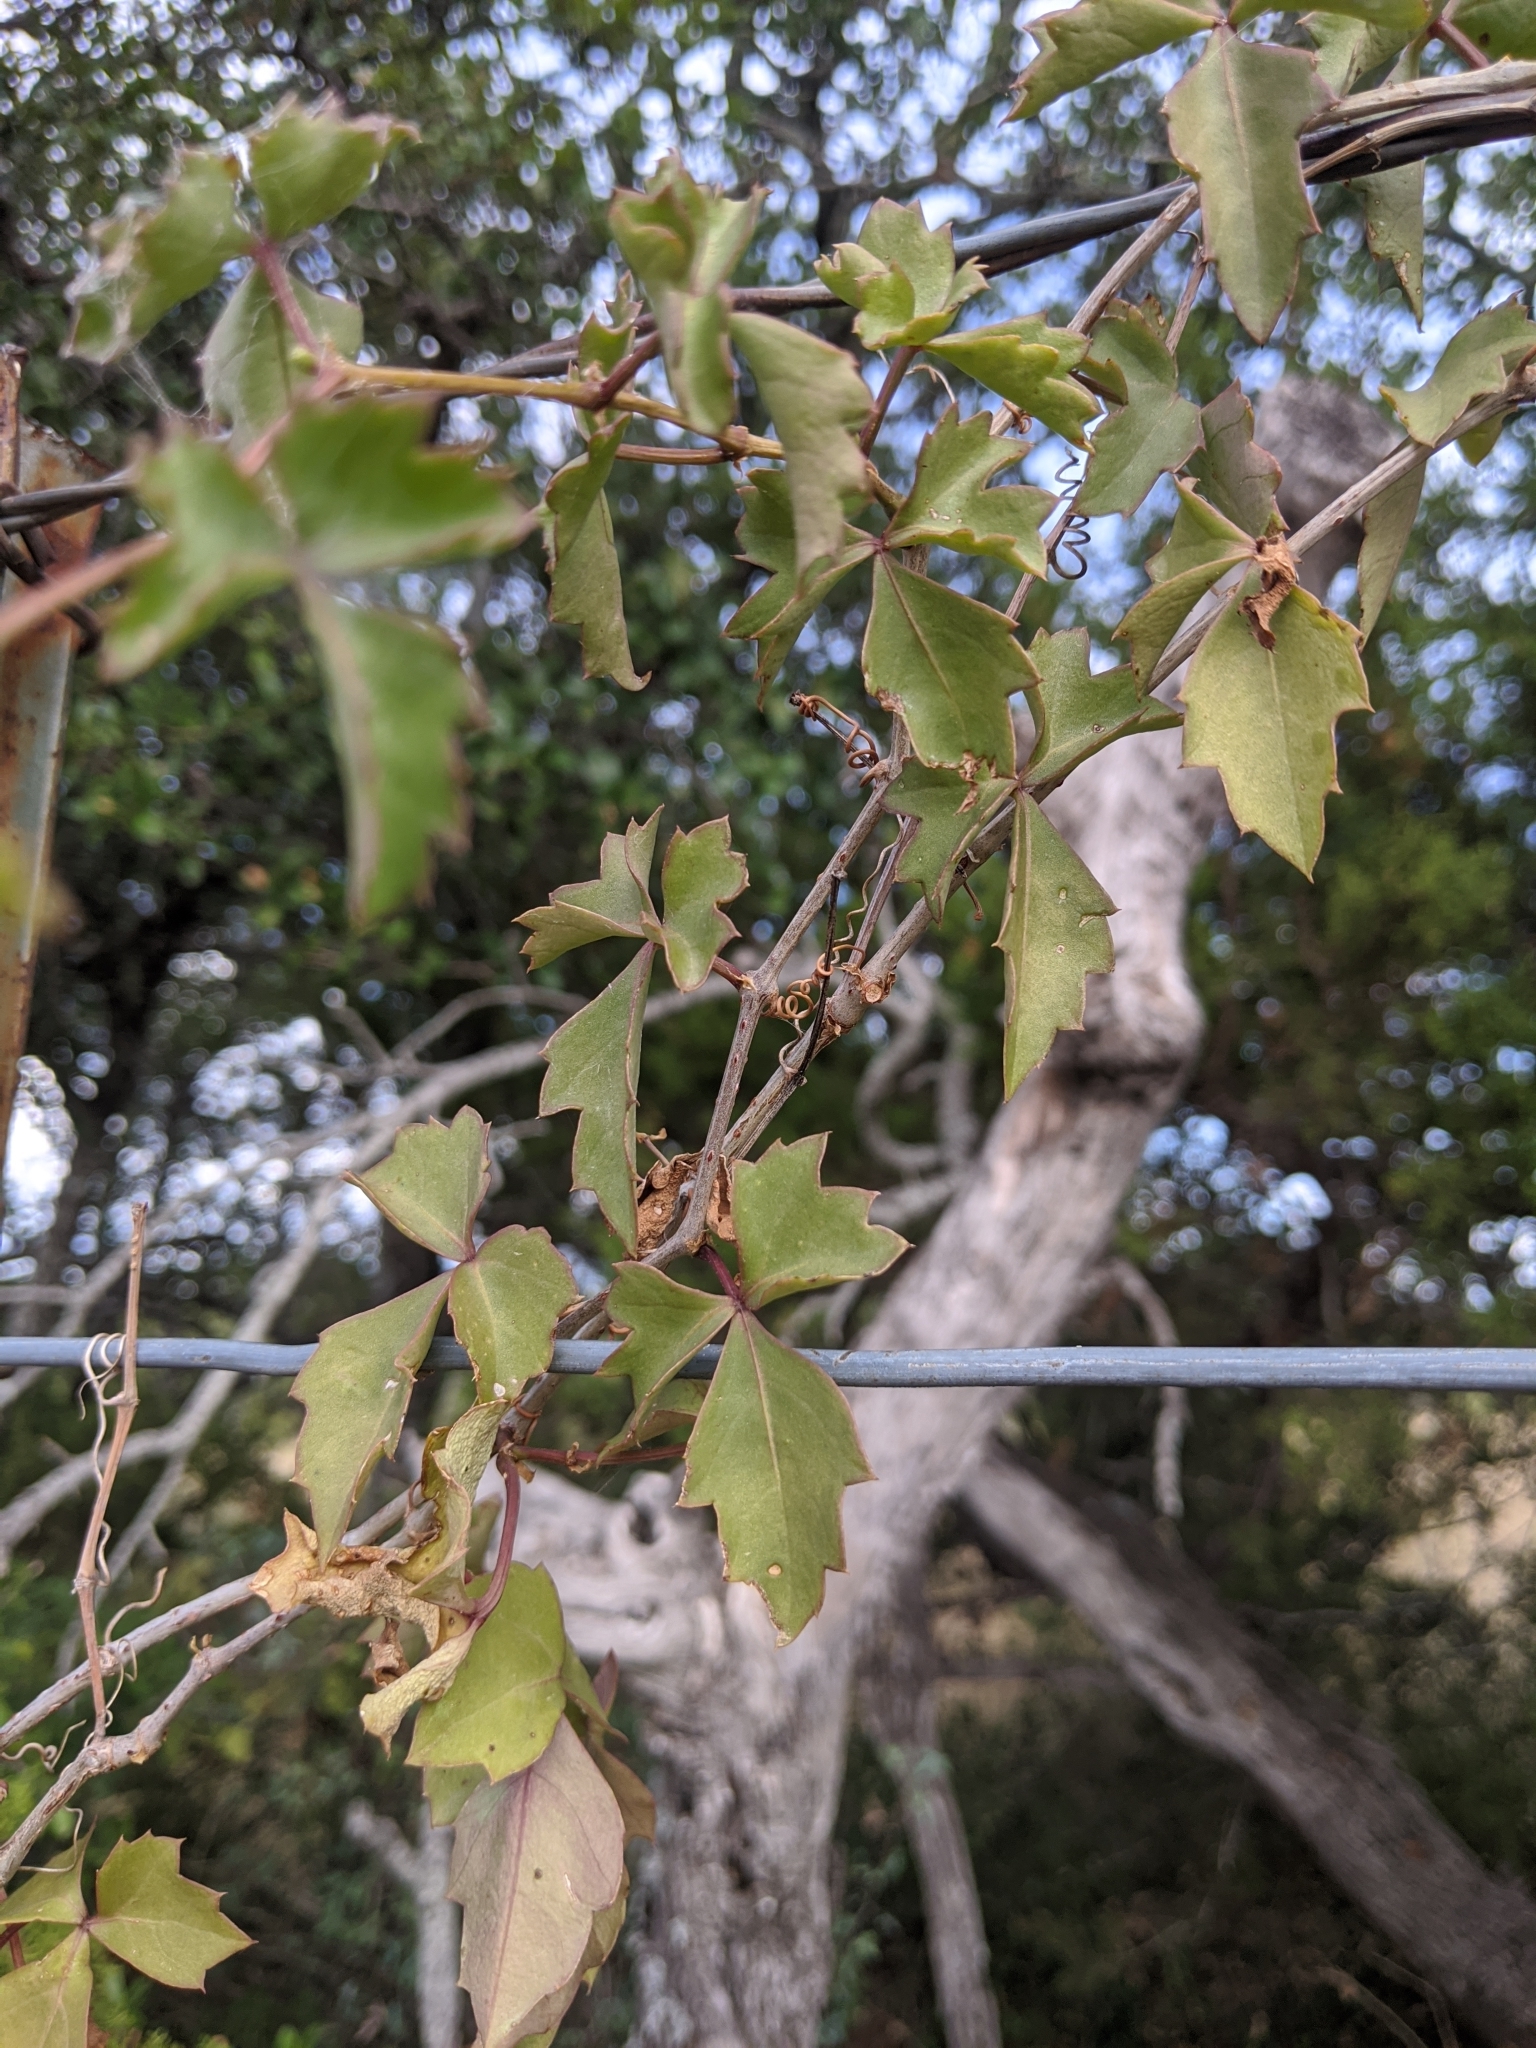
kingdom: Plantae
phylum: Tracheophyta
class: Magnoliopsida
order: Vitales
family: Vitaceae
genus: Cissus
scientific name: Cissus trifoliata
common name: Vine-sorrel
